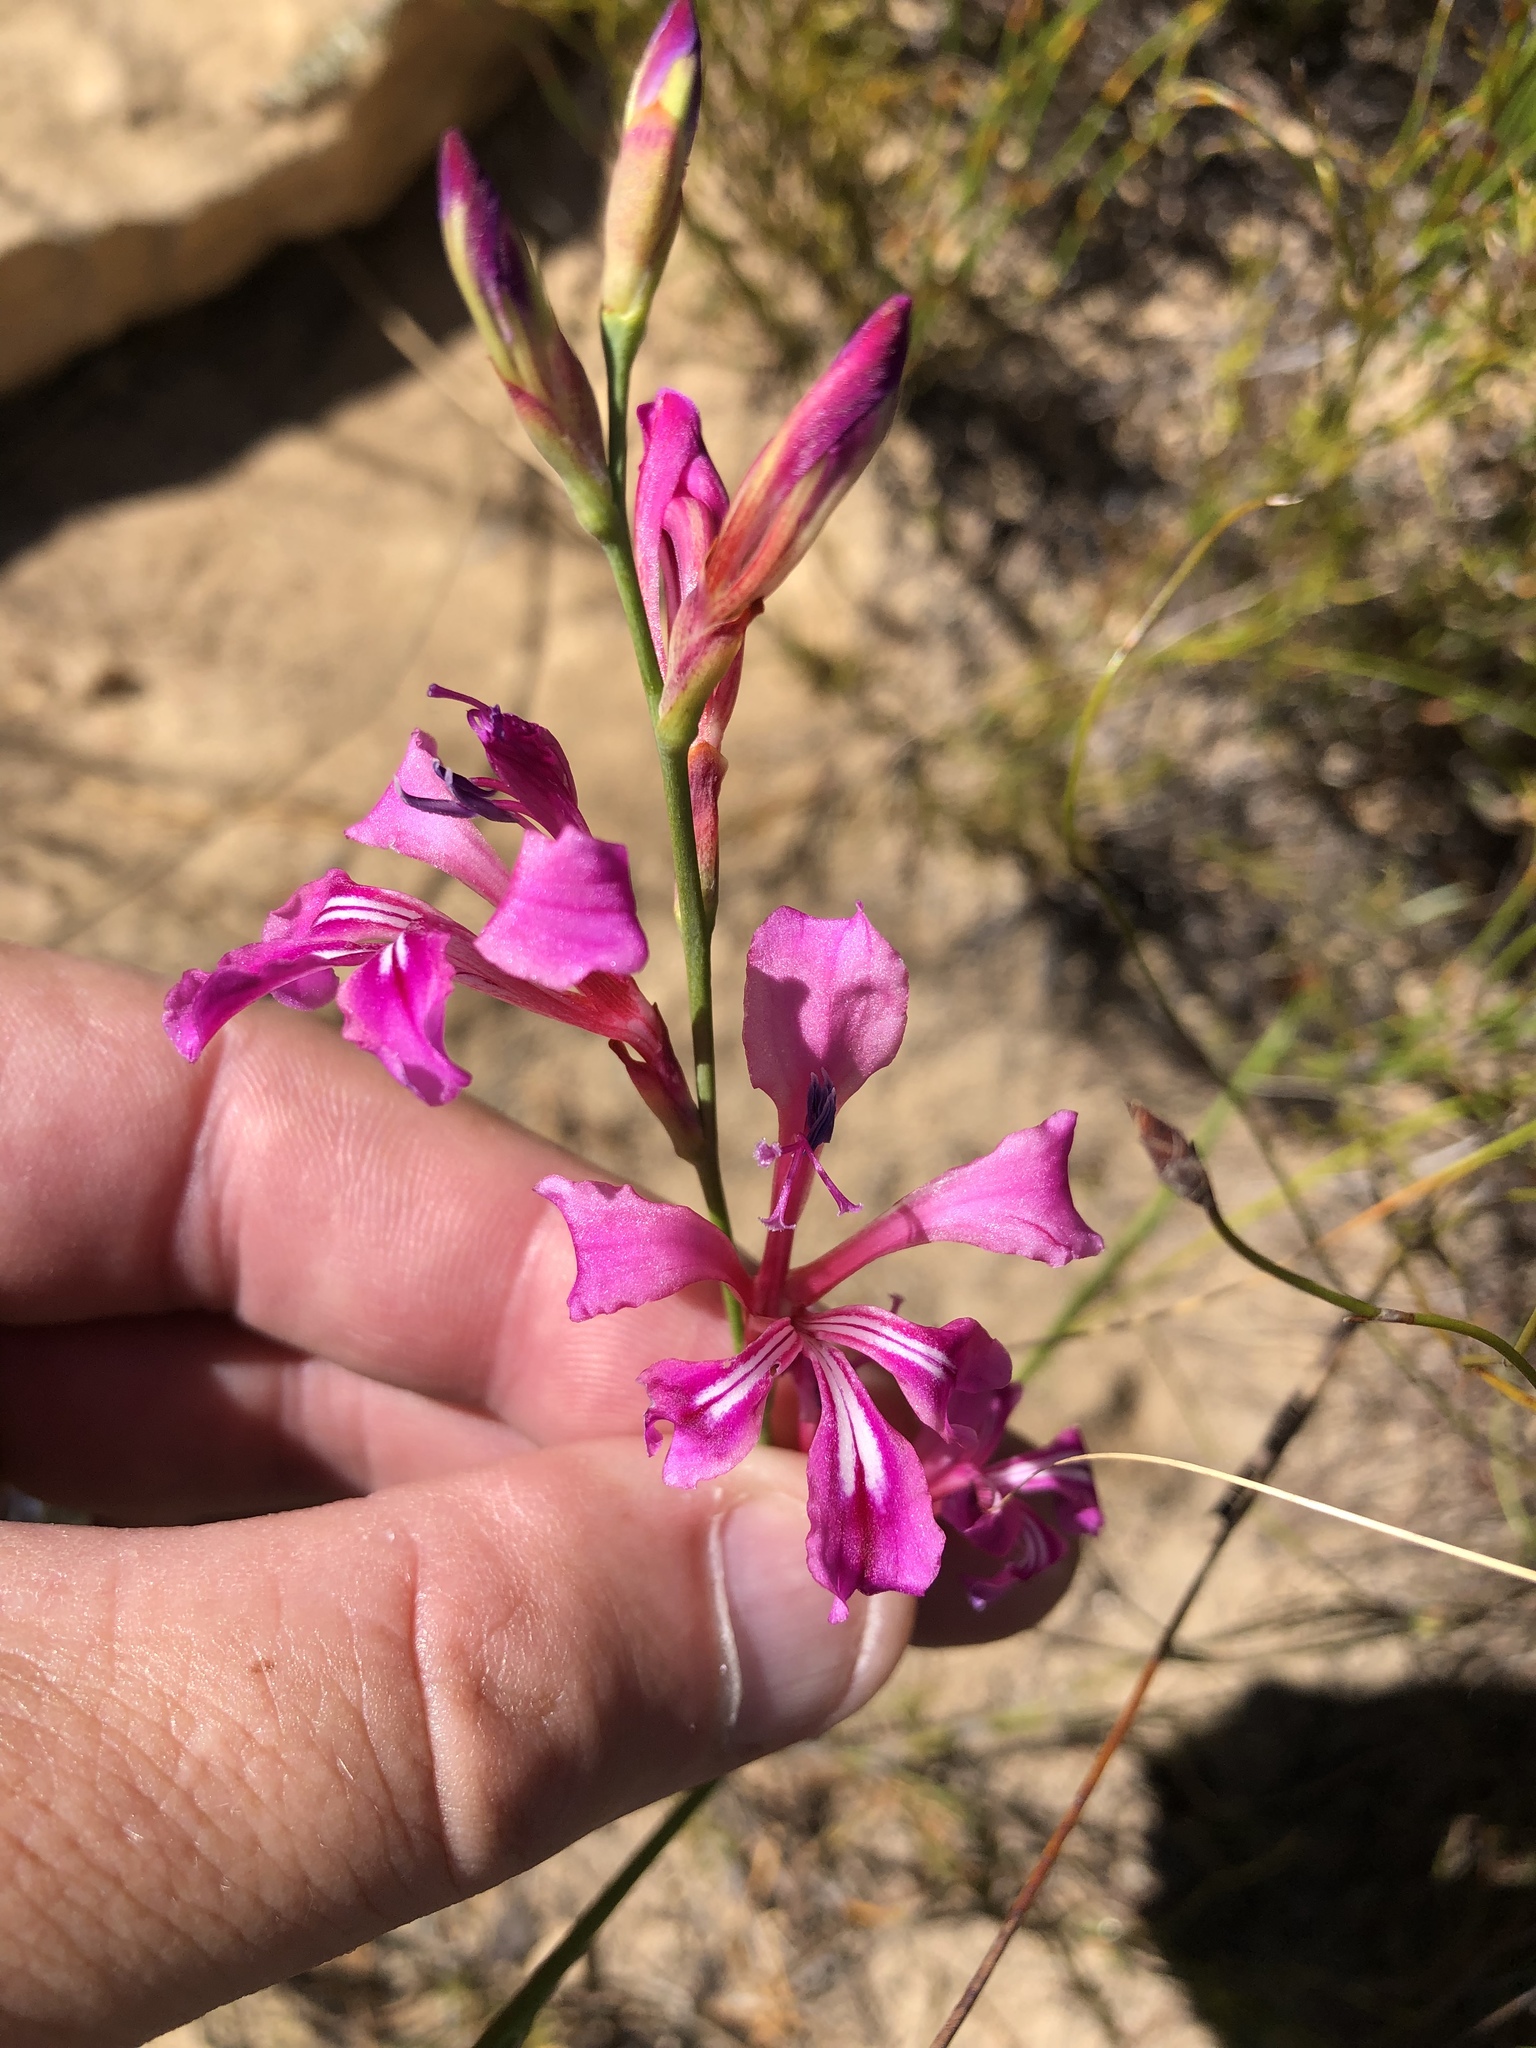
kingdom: Plantae
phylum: Tracheophyta
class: Liliopsida
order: Asparagales
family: Iridaceae
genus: Tritoniopsis
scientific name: Tritoniopsis ramosa
